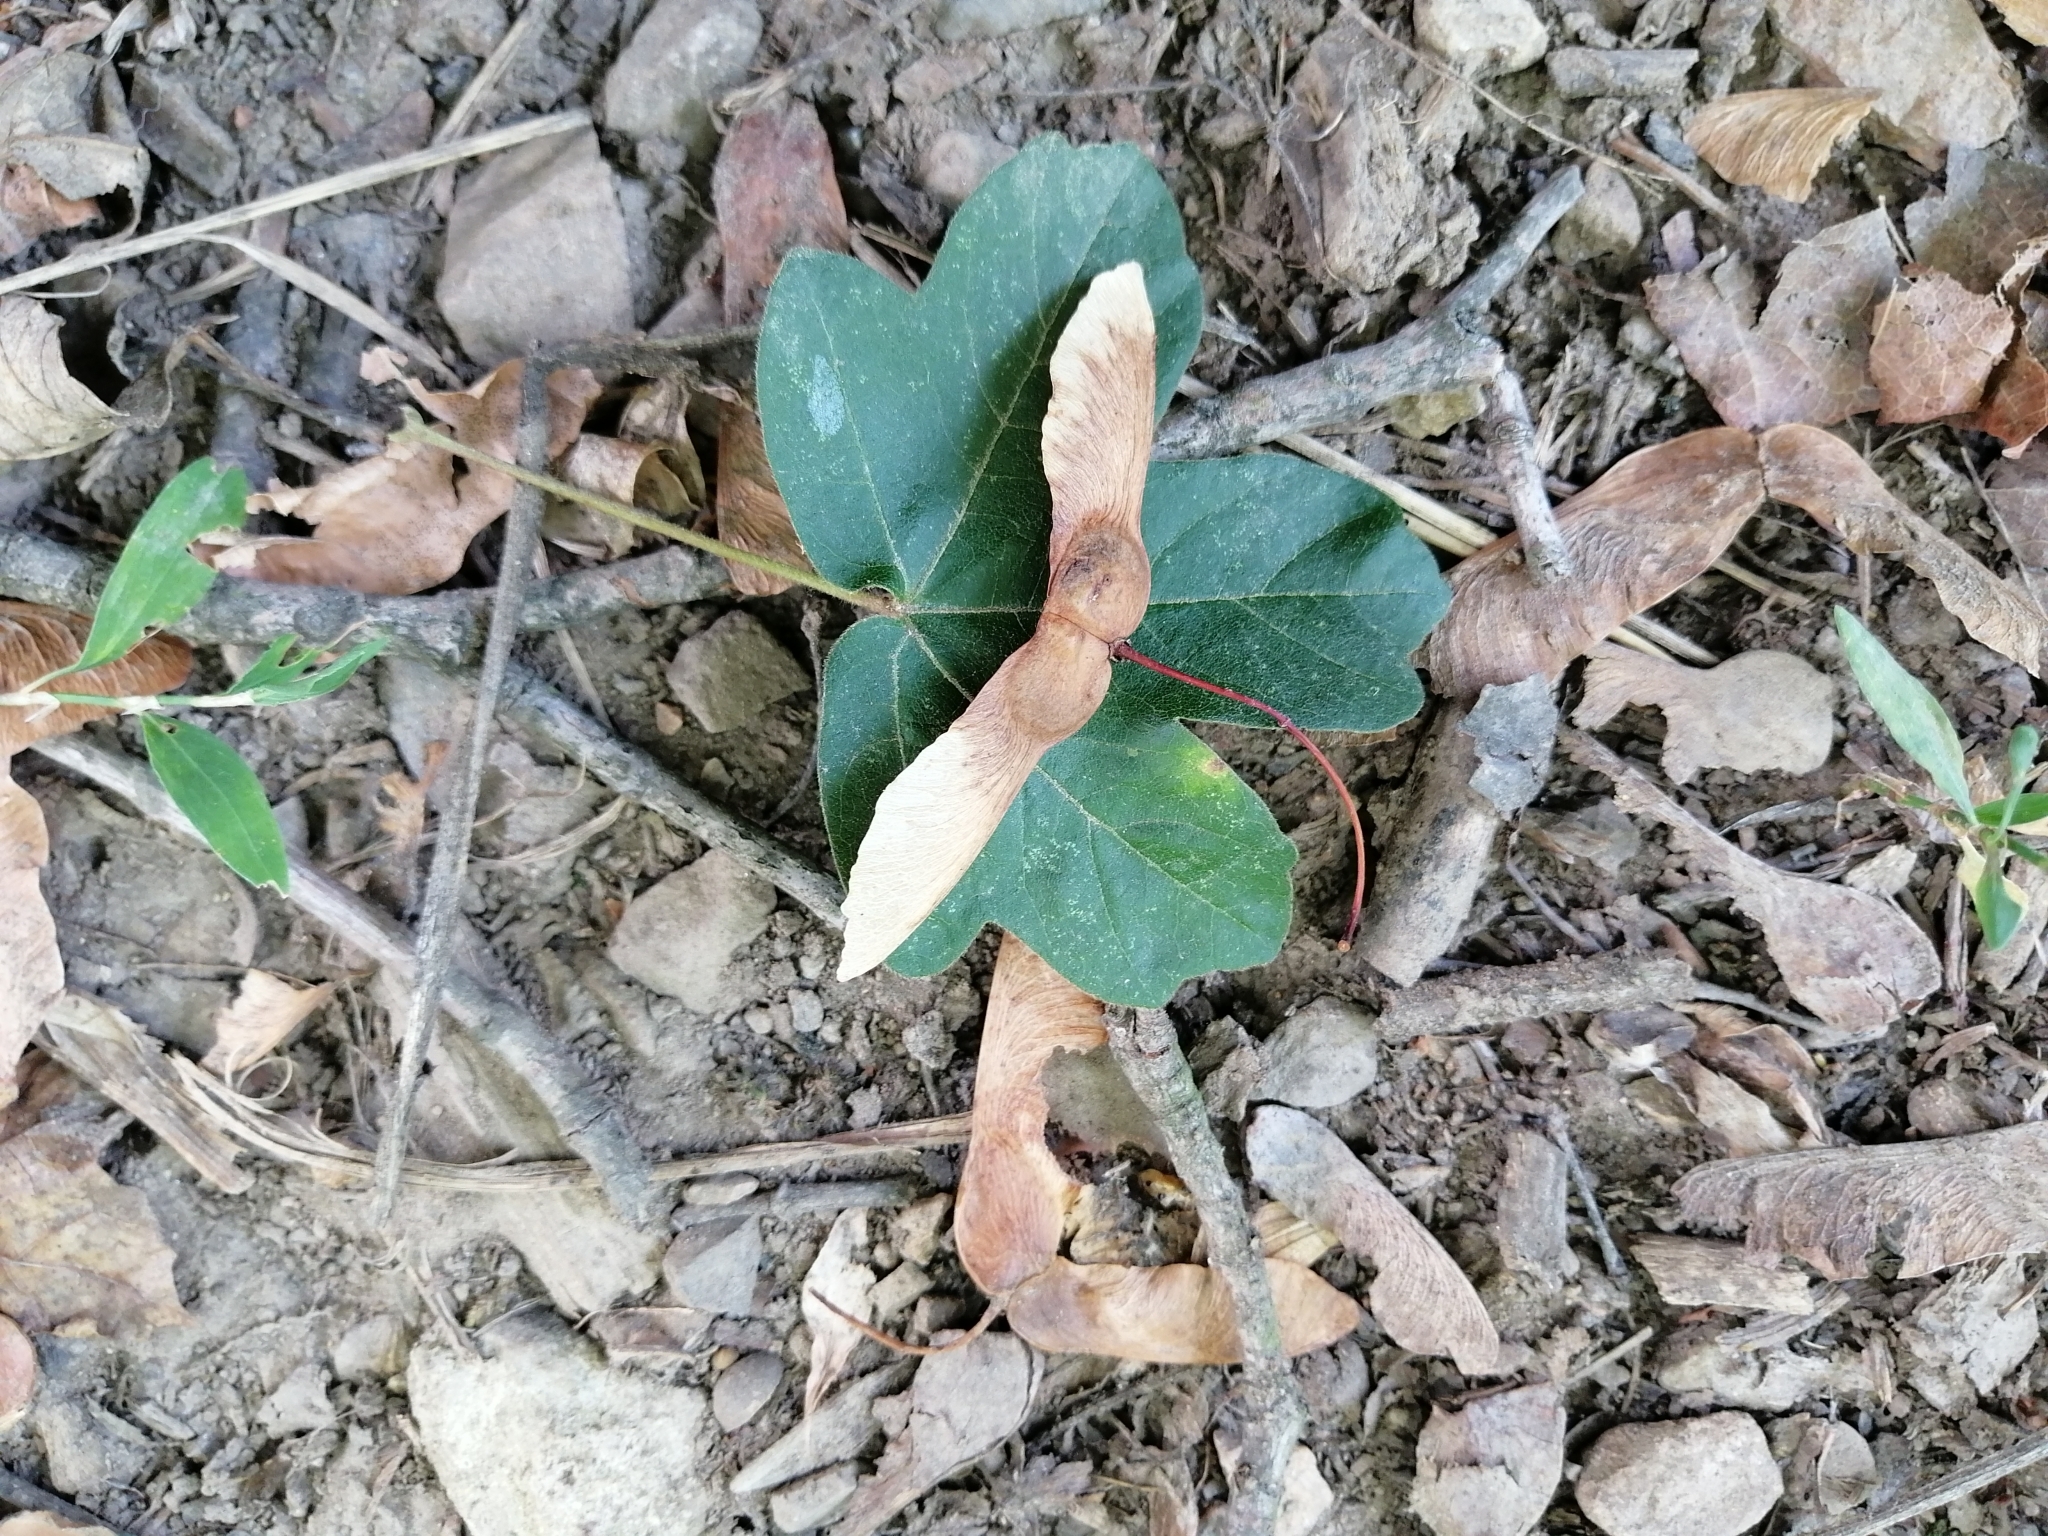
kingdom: Plantae
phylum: Tracheophyta
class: Magnoliopsida
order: Sapindales
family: Sapindaceae
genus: Acer
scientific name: Acer campestre
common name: Field maple
